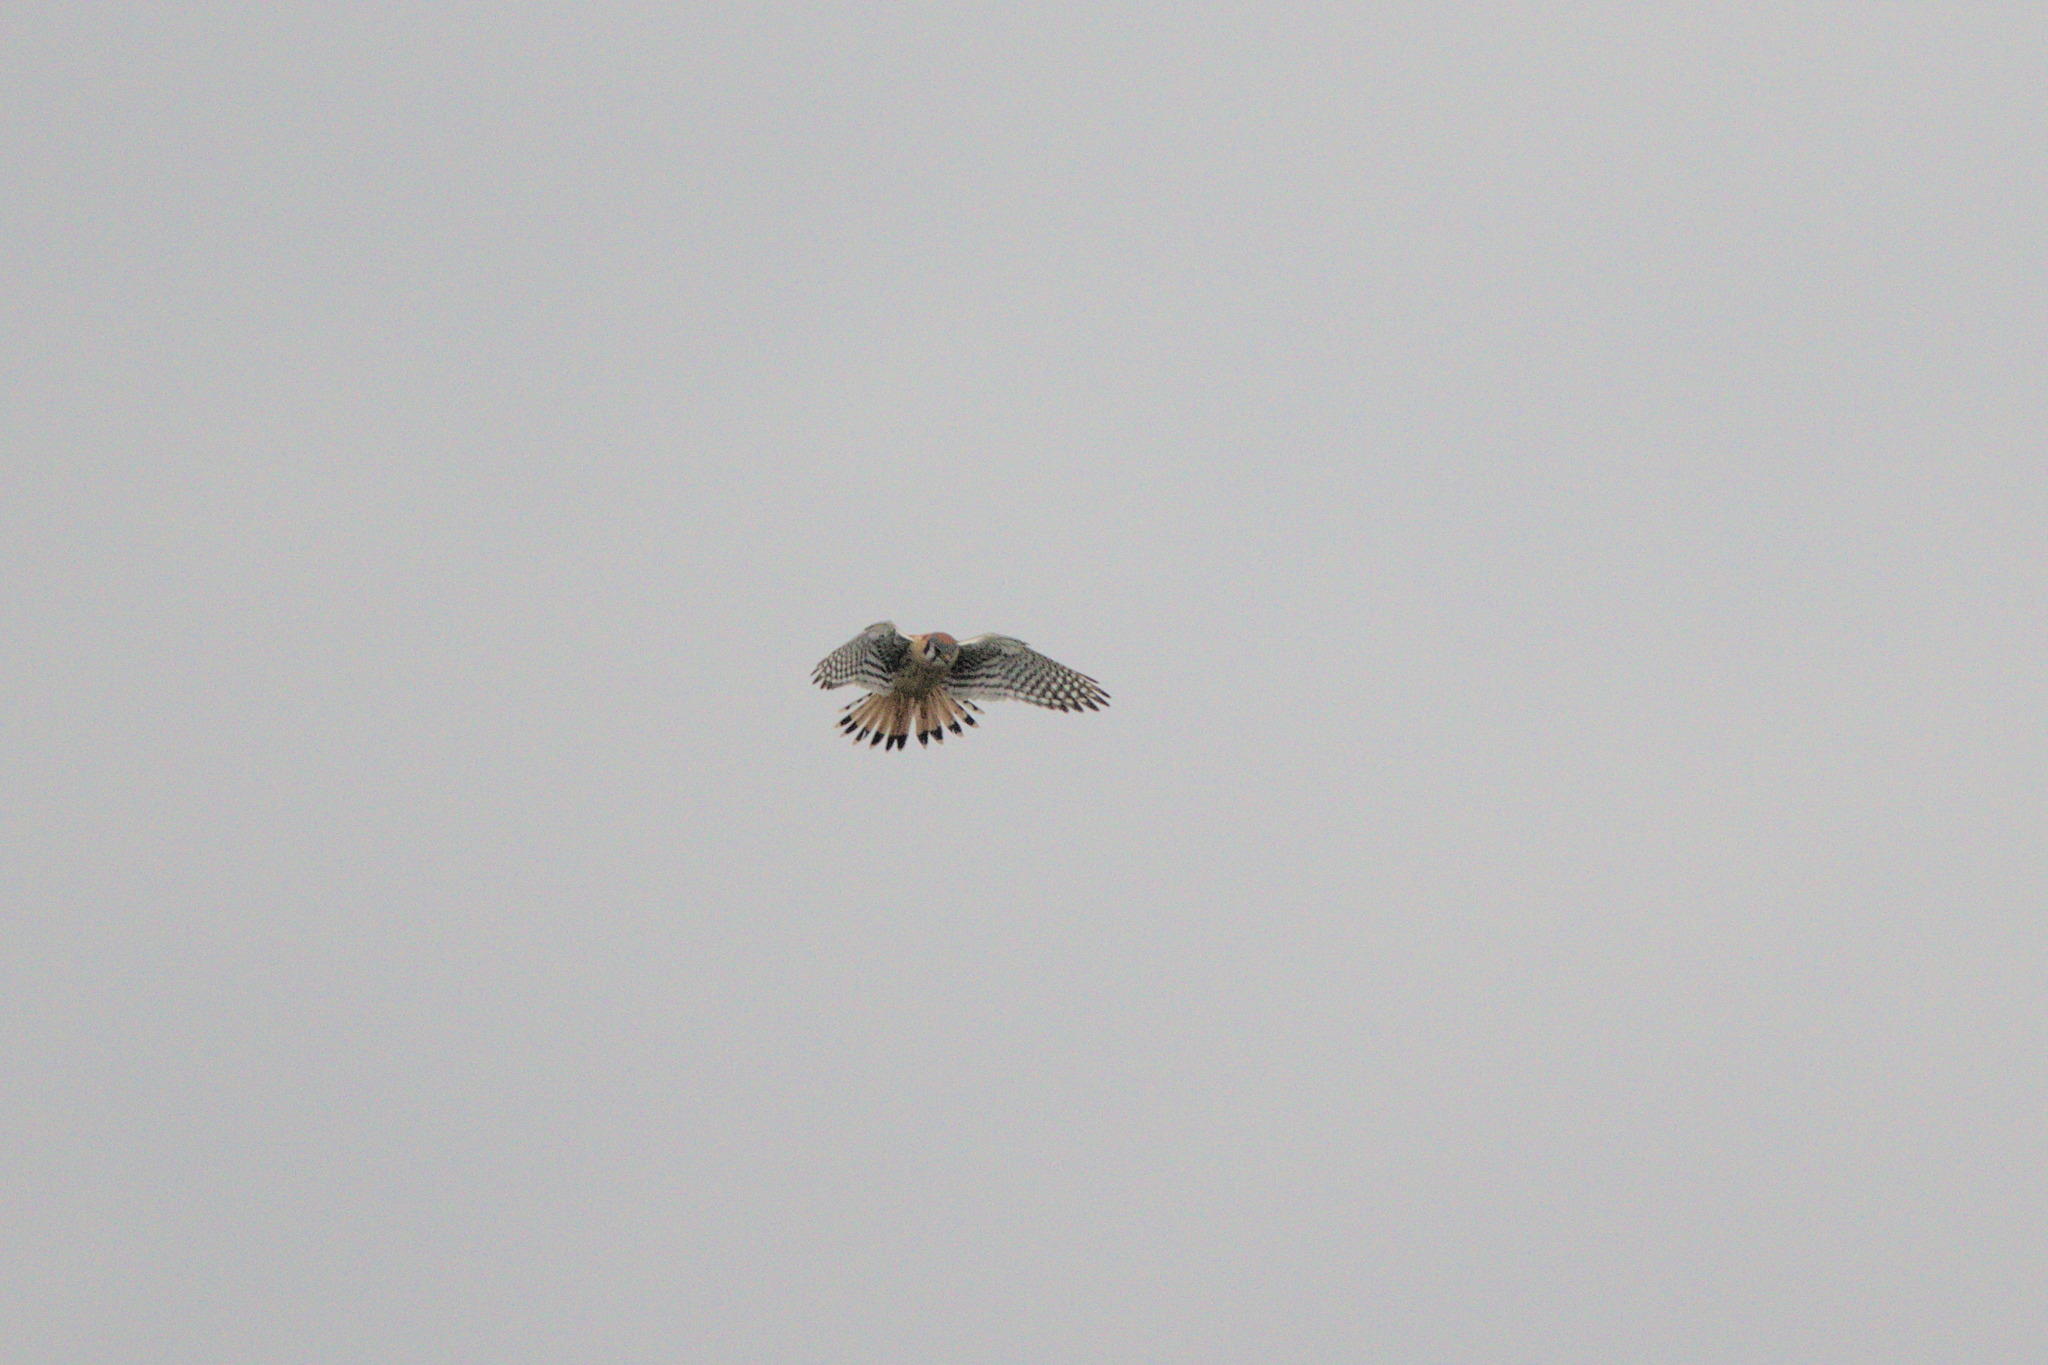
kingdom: Animalia
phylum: Chordata
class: Aves
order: Falconiformes
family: Falconidae
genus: Falco
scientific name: Falco sparverius
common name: American kestrel
